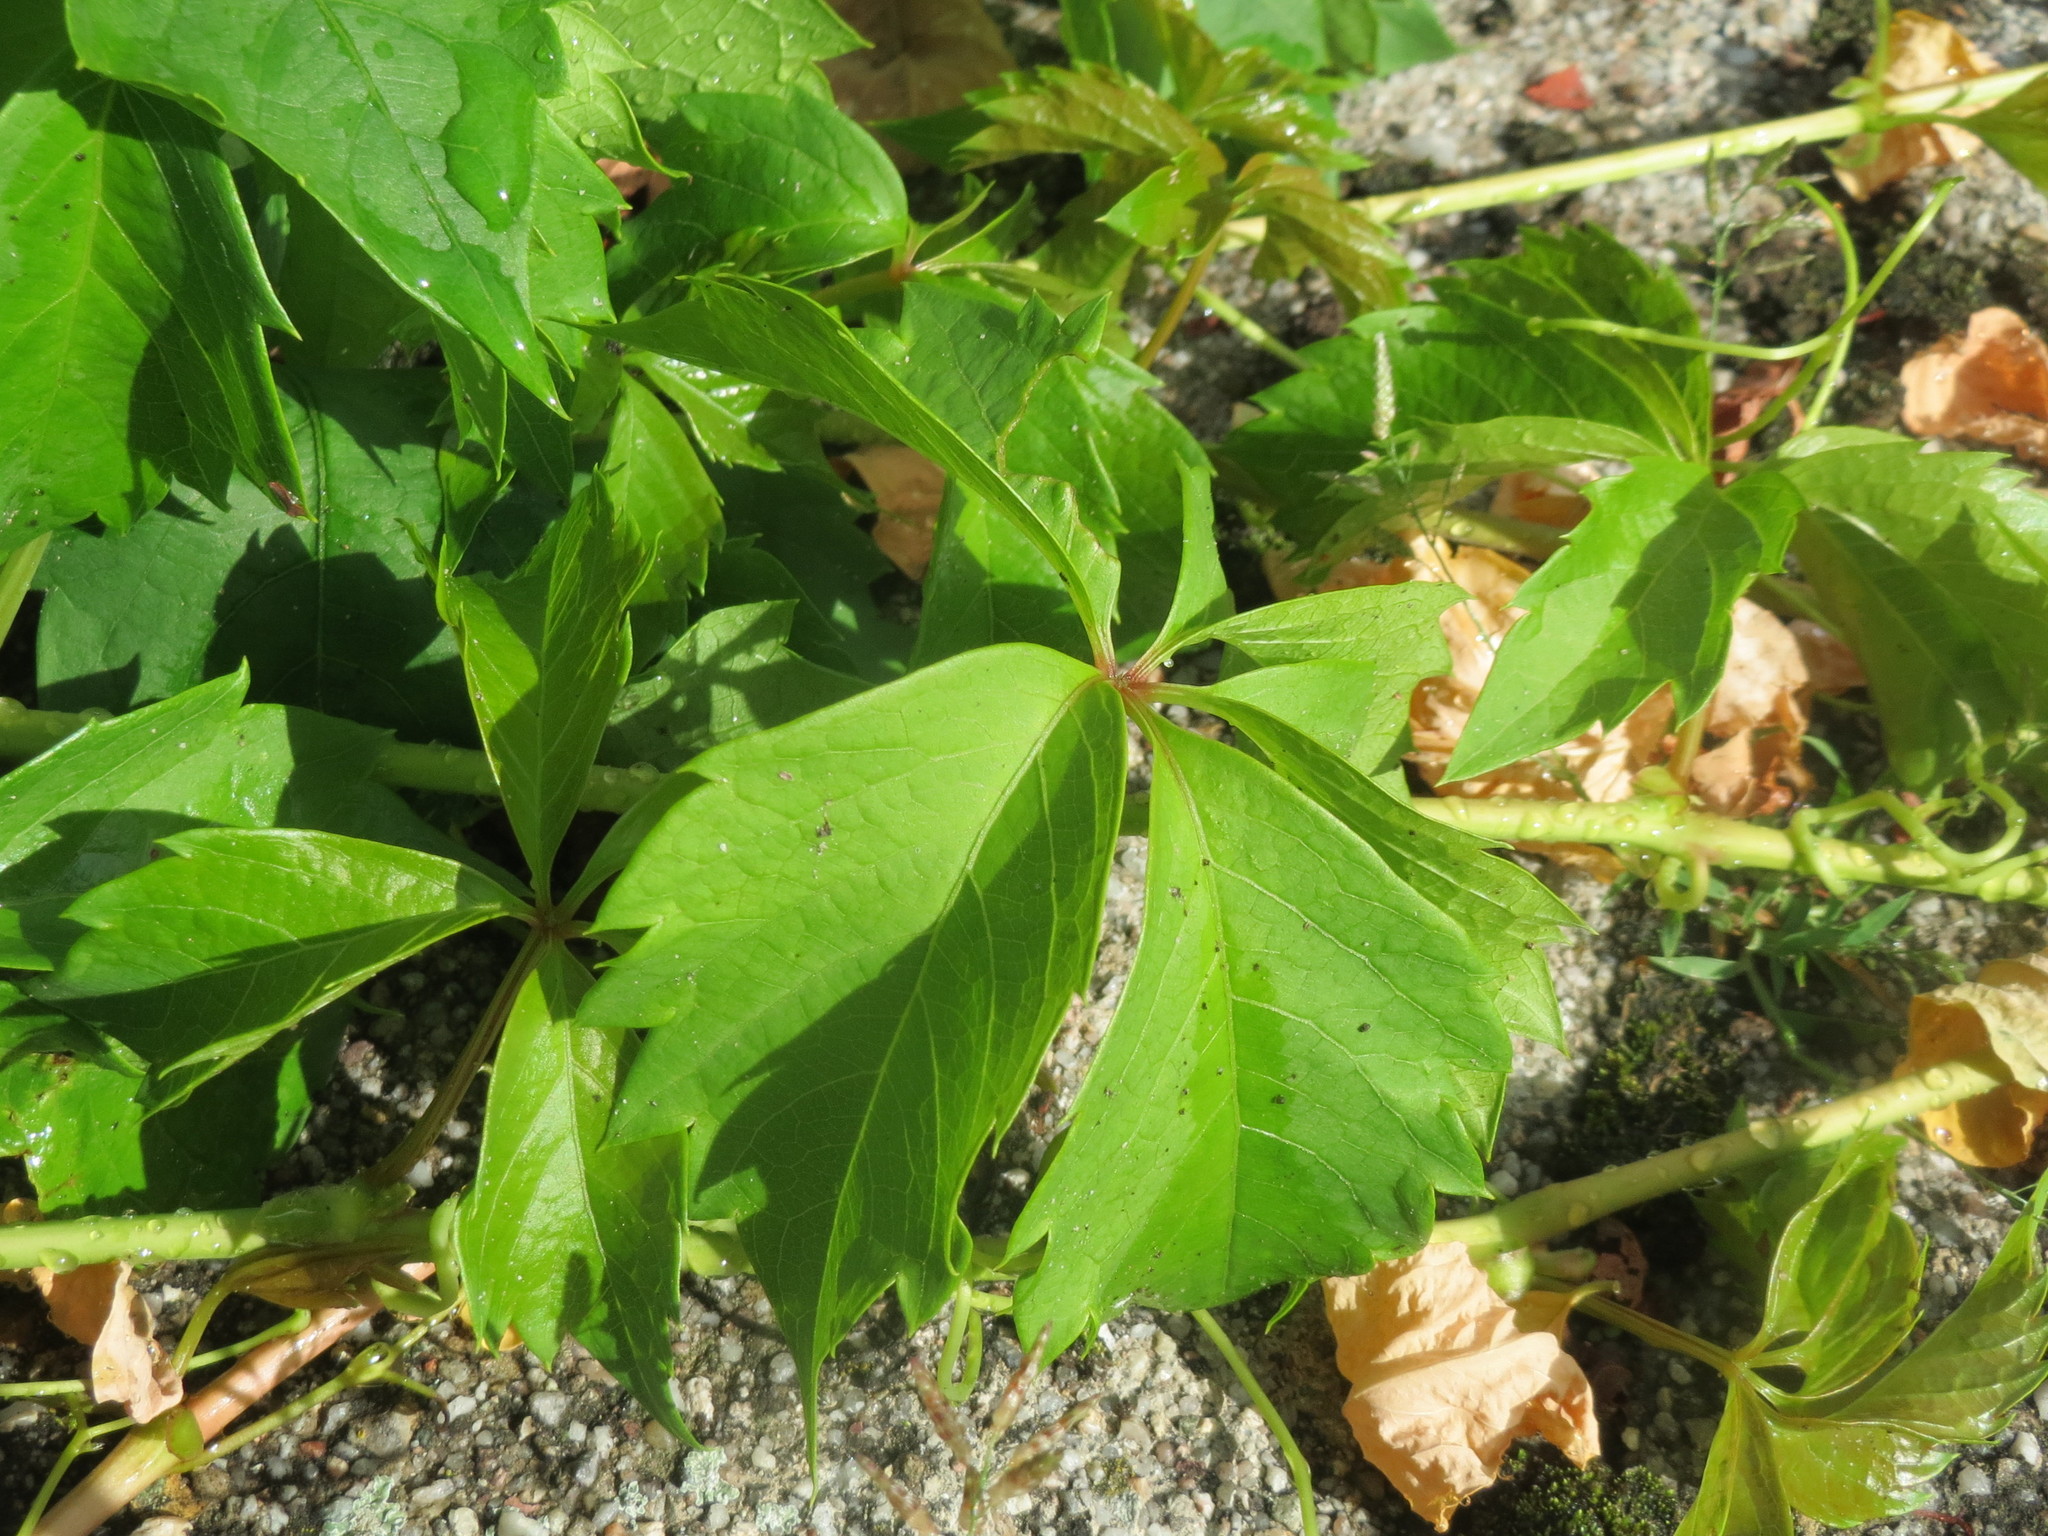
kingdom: Plantae
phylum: Tracheophyta
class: Magnoliopsida
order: Vitales
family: Vitaceae
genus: Parthenocissus
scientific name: Parthenocissus quinquefolia
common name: Virginia-creeper
